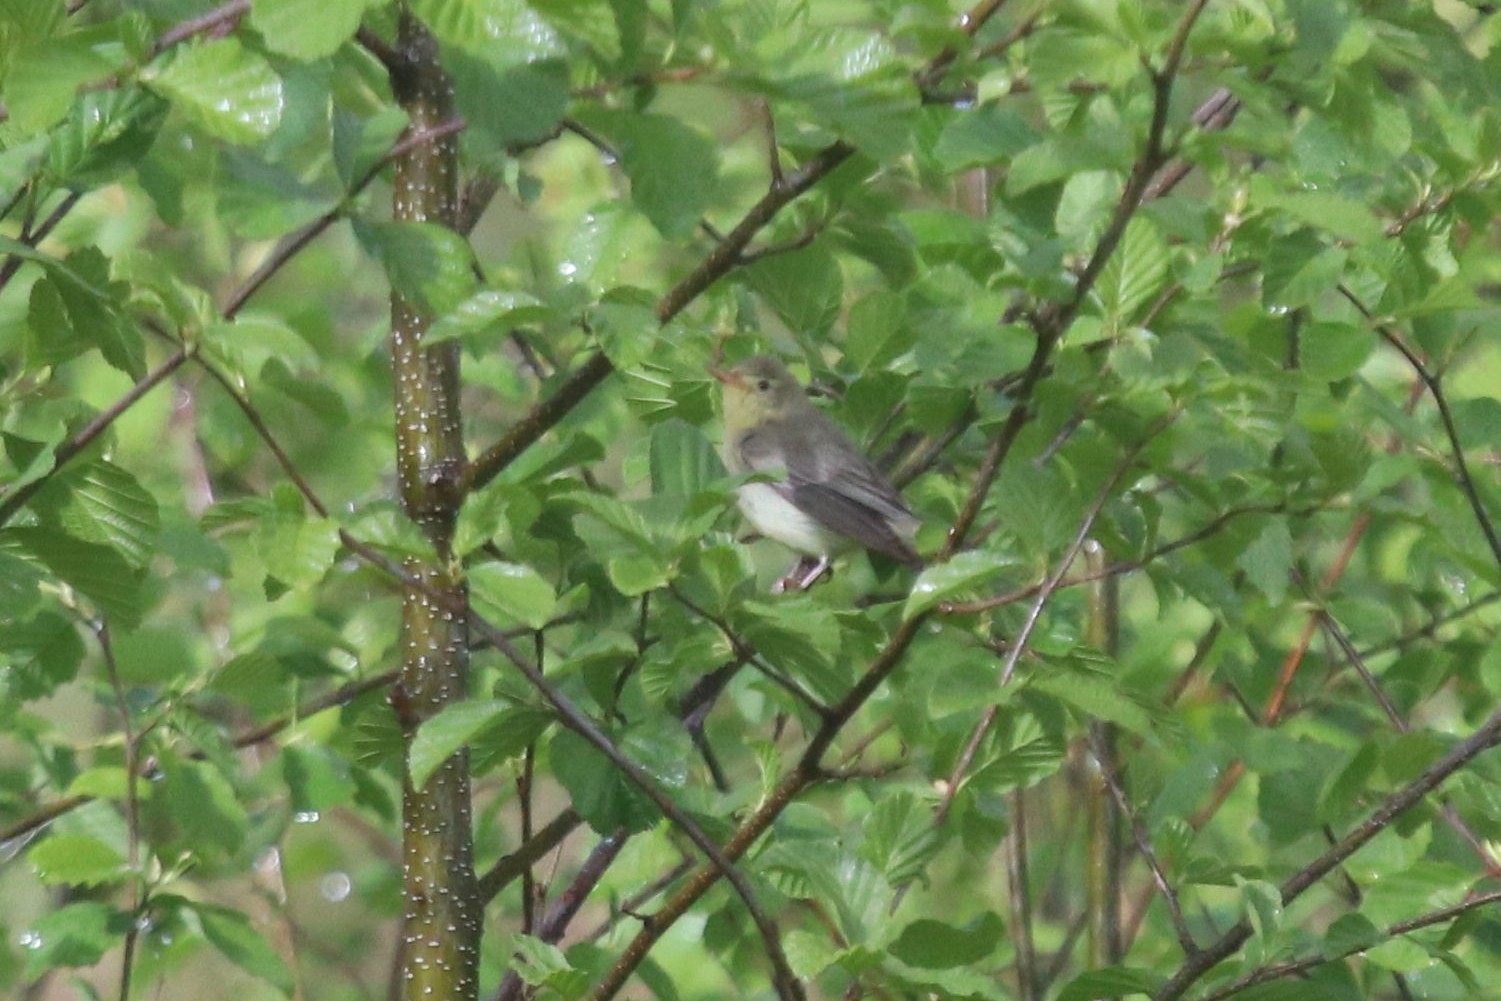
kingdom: Animalia
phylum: Chordata
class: Aves
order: Passeriformes
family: Acrocephalidae
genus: Hippolais
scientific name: Hippolais icterina
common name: Icterine warbler
